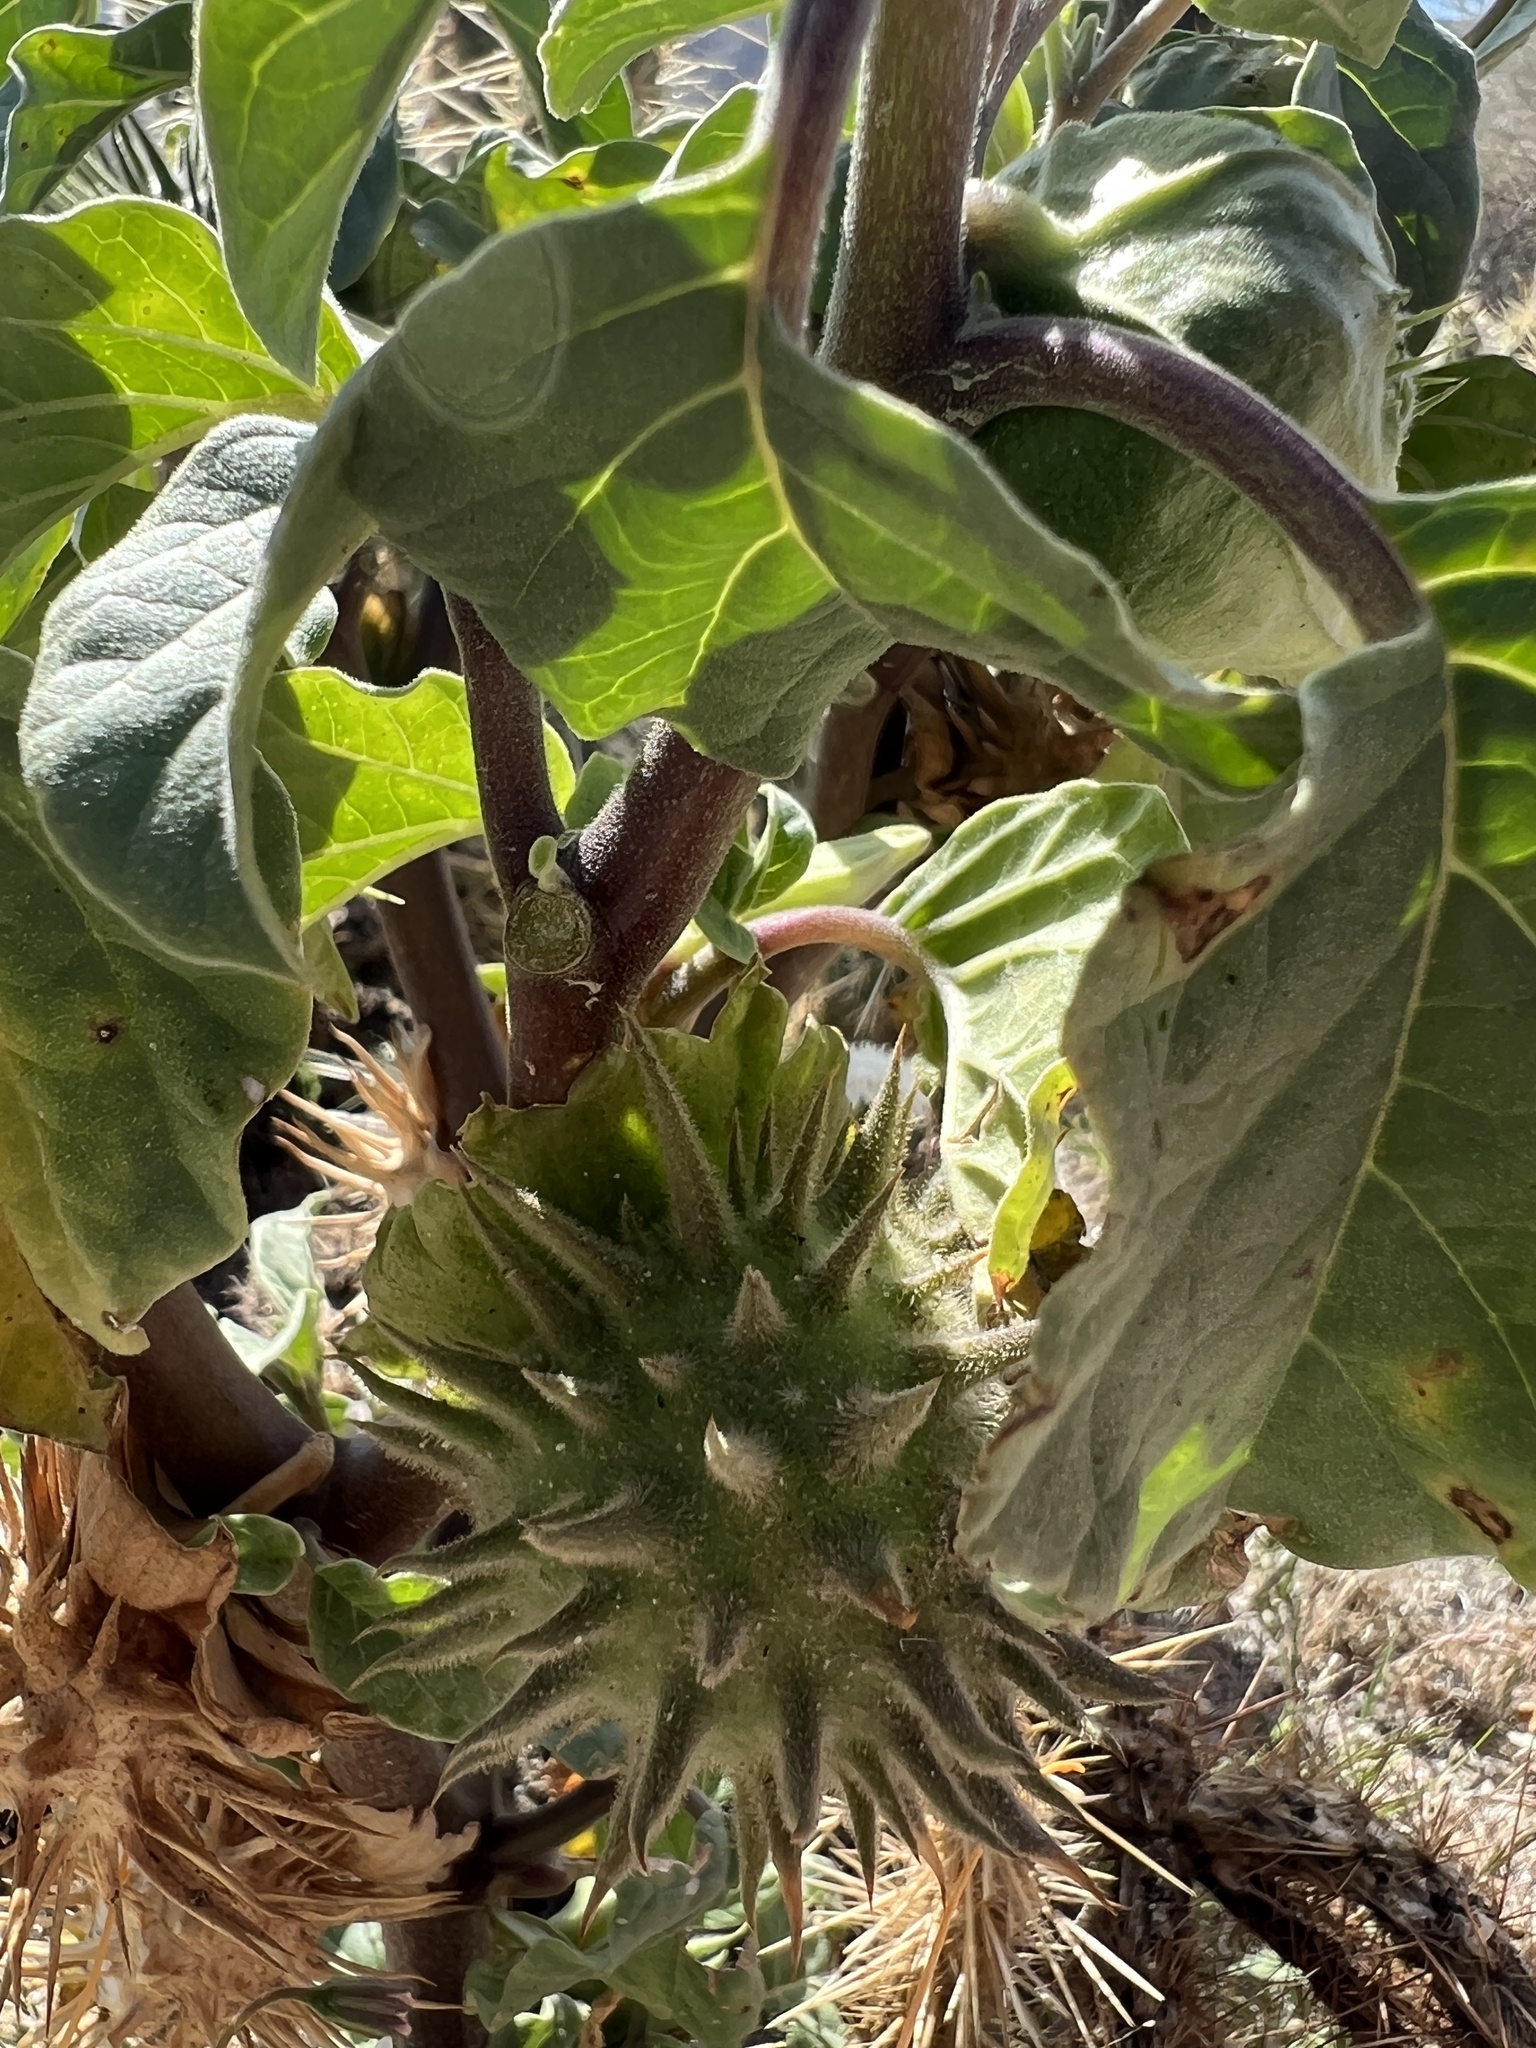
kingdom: Plantae
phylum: Tracheophyta
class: Magnoliopsida
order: Solanales
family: Solanaceae
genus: Datura
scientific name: Datura discolor
